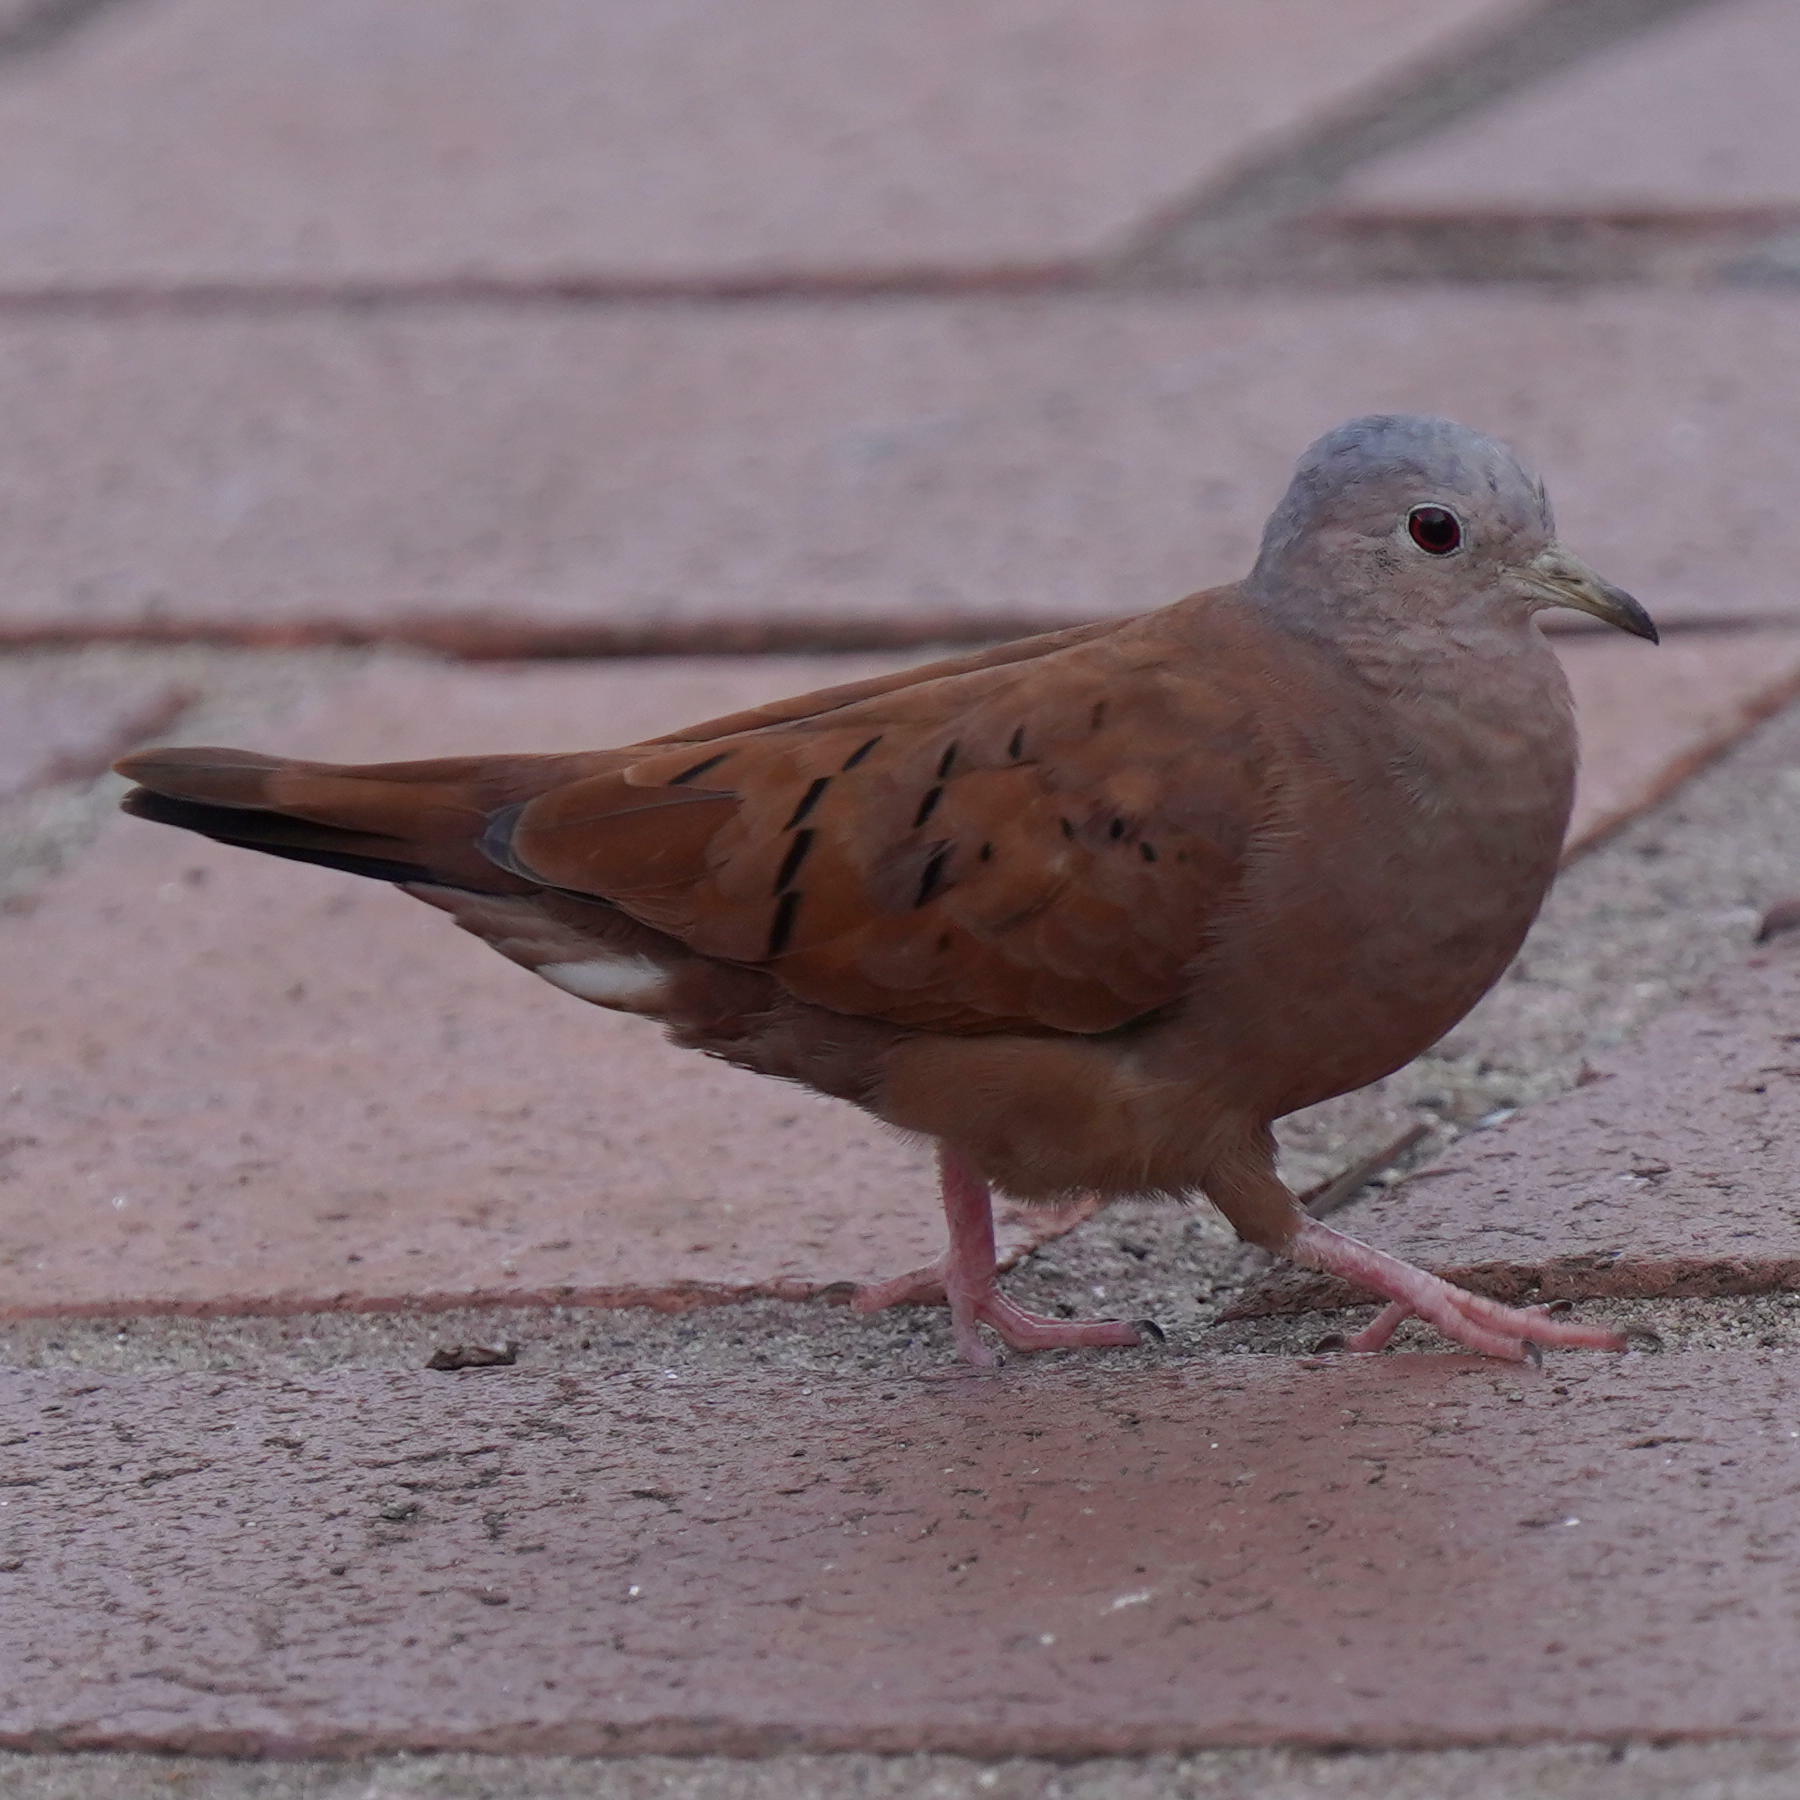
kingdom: Animalia
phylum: Chordata
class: Aves
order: Columbiformes
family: Columbidae
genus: Columbina
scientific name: Columbina talpacoti
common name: Ruddy ground dove
